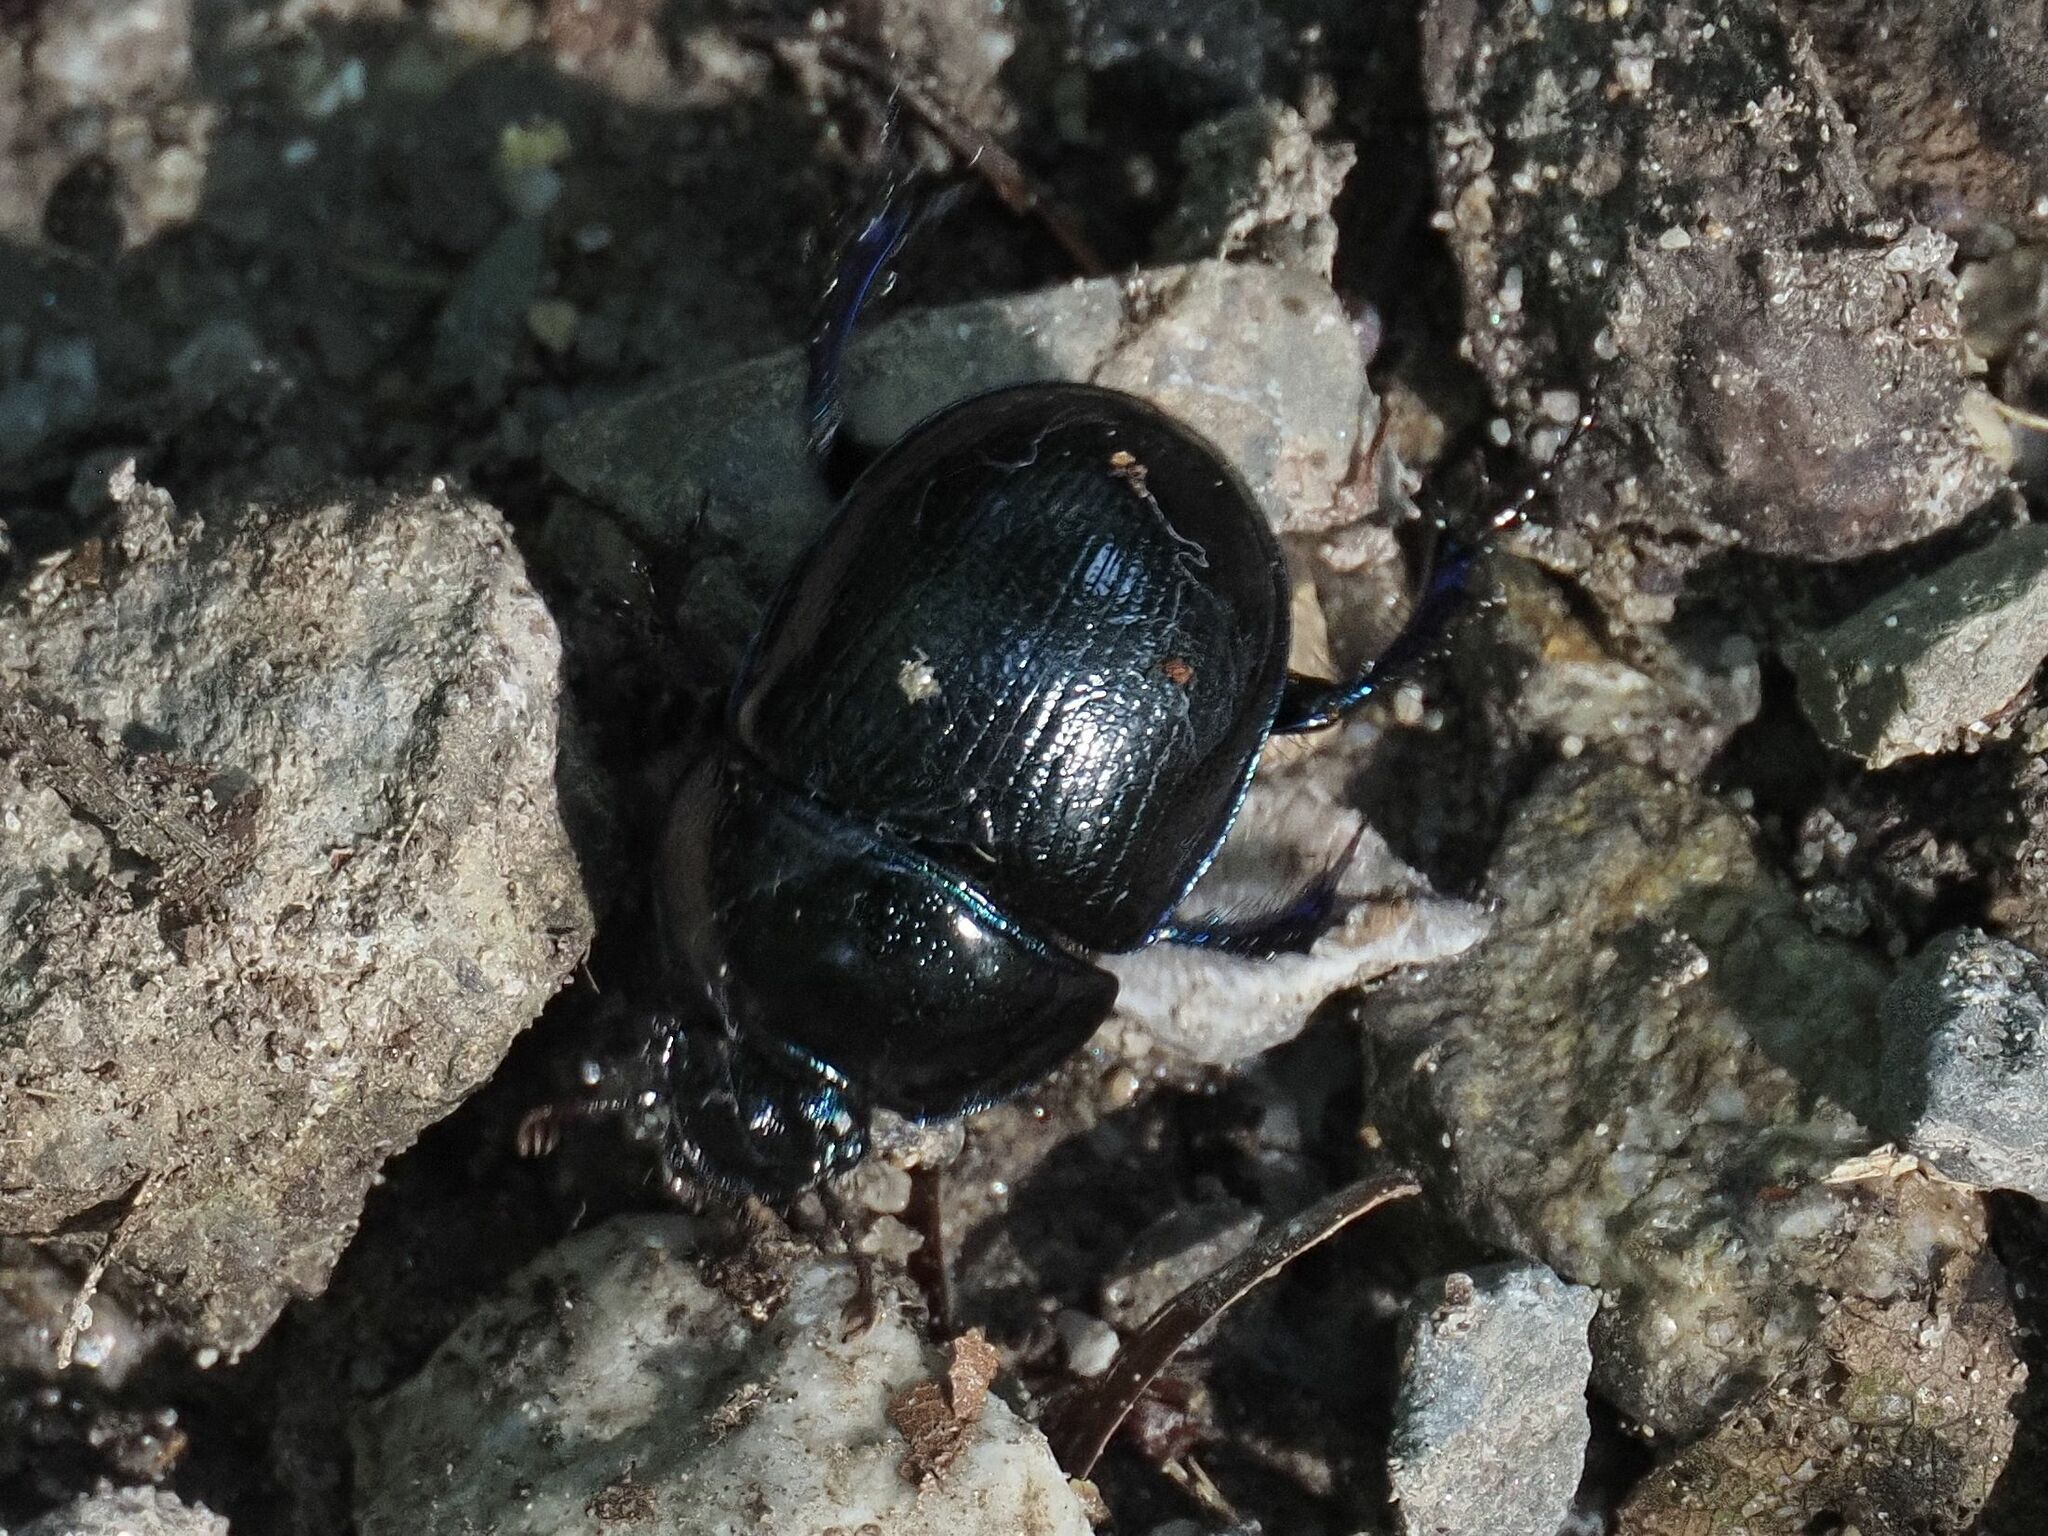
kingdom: Animalia
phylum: Arthropoda
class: Insecta
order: Coleoptera
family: Geotrupidae
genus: Anoplotrupes
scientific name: Anoplotrupes stercorosus
